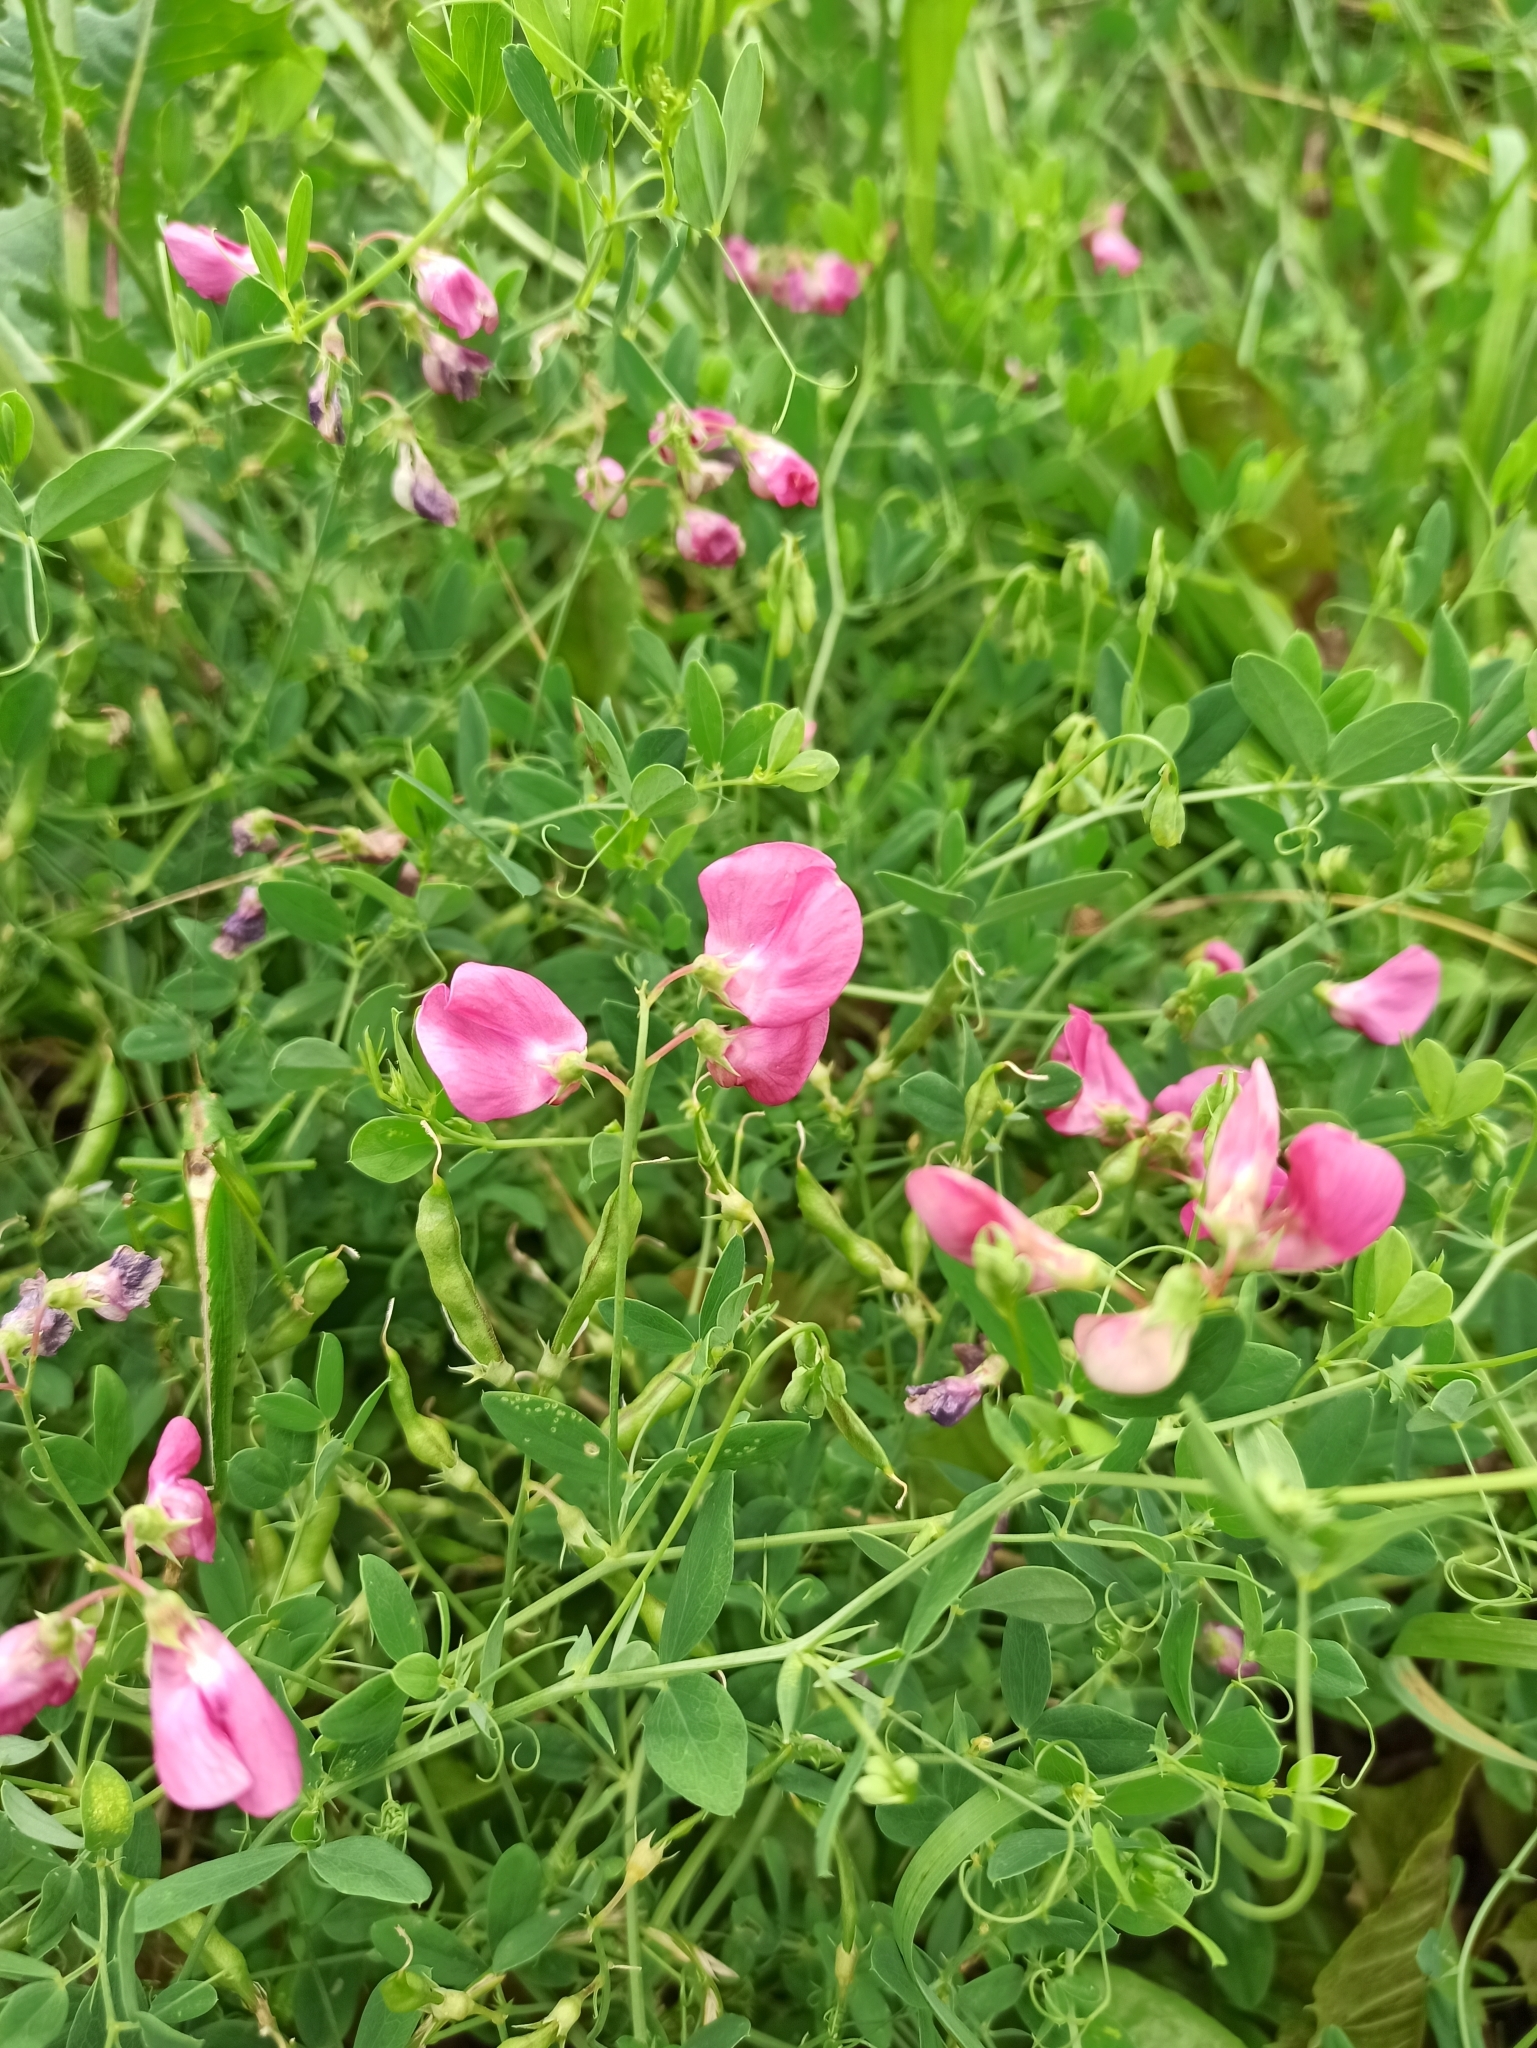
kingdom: Plantae
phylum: Tracheophyta
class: Magnoliopsida
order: Fabales
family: Fabaceae
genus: Lathyrus
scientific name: Lathyrus tuberosus
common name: Tuberous pea
